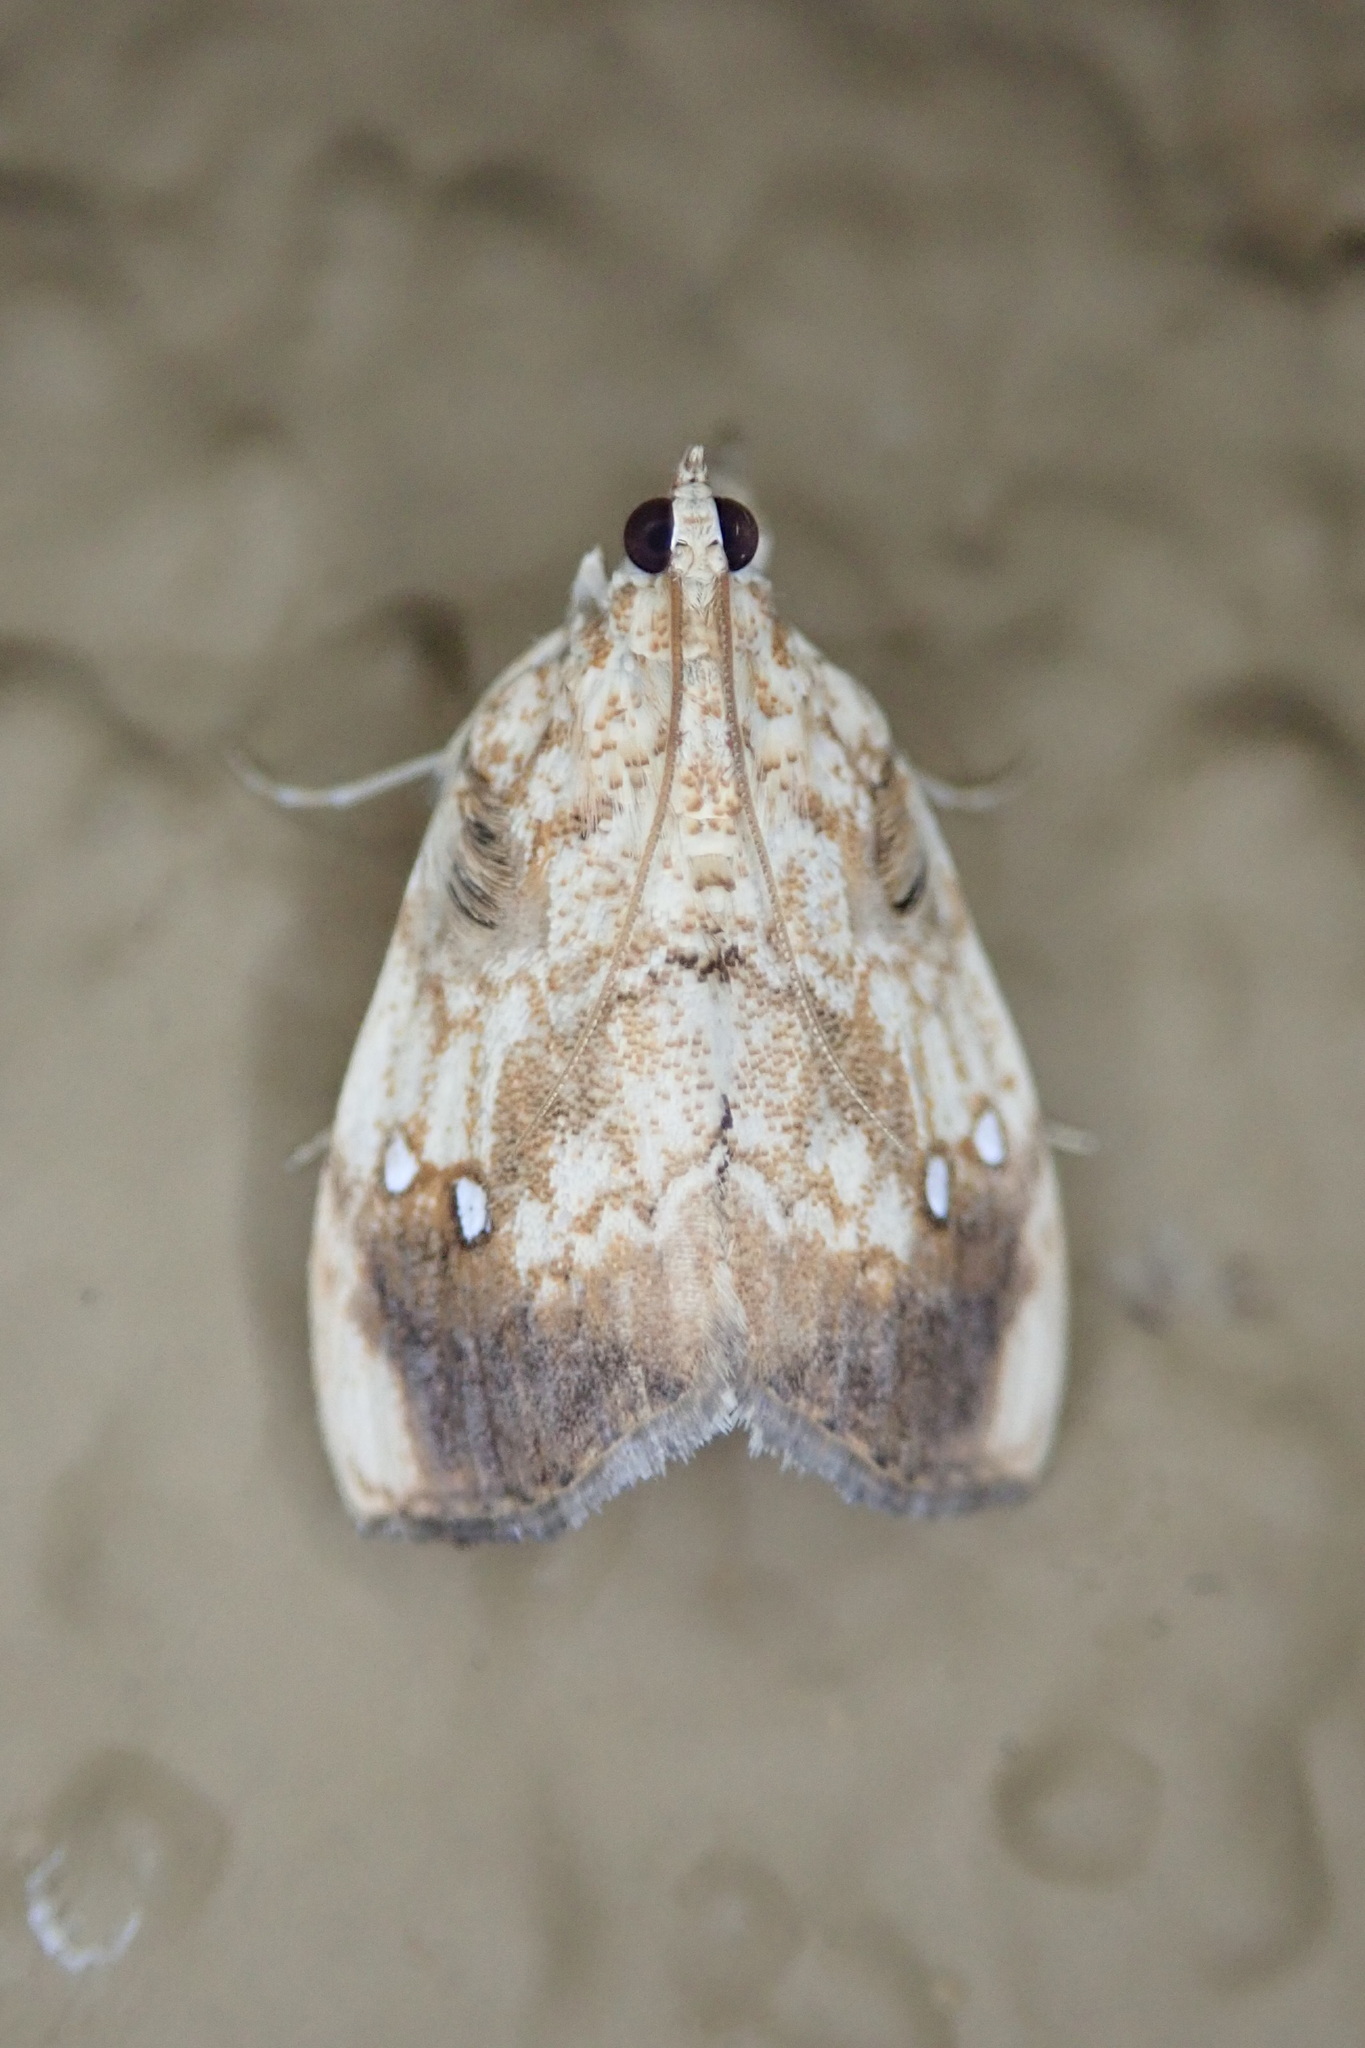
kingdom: Animalia
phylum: Arthropoda
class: Insecta
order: Lepidoptera
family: Crambidae
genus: Crocidolomia
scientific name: Crocidolomia pavonana
